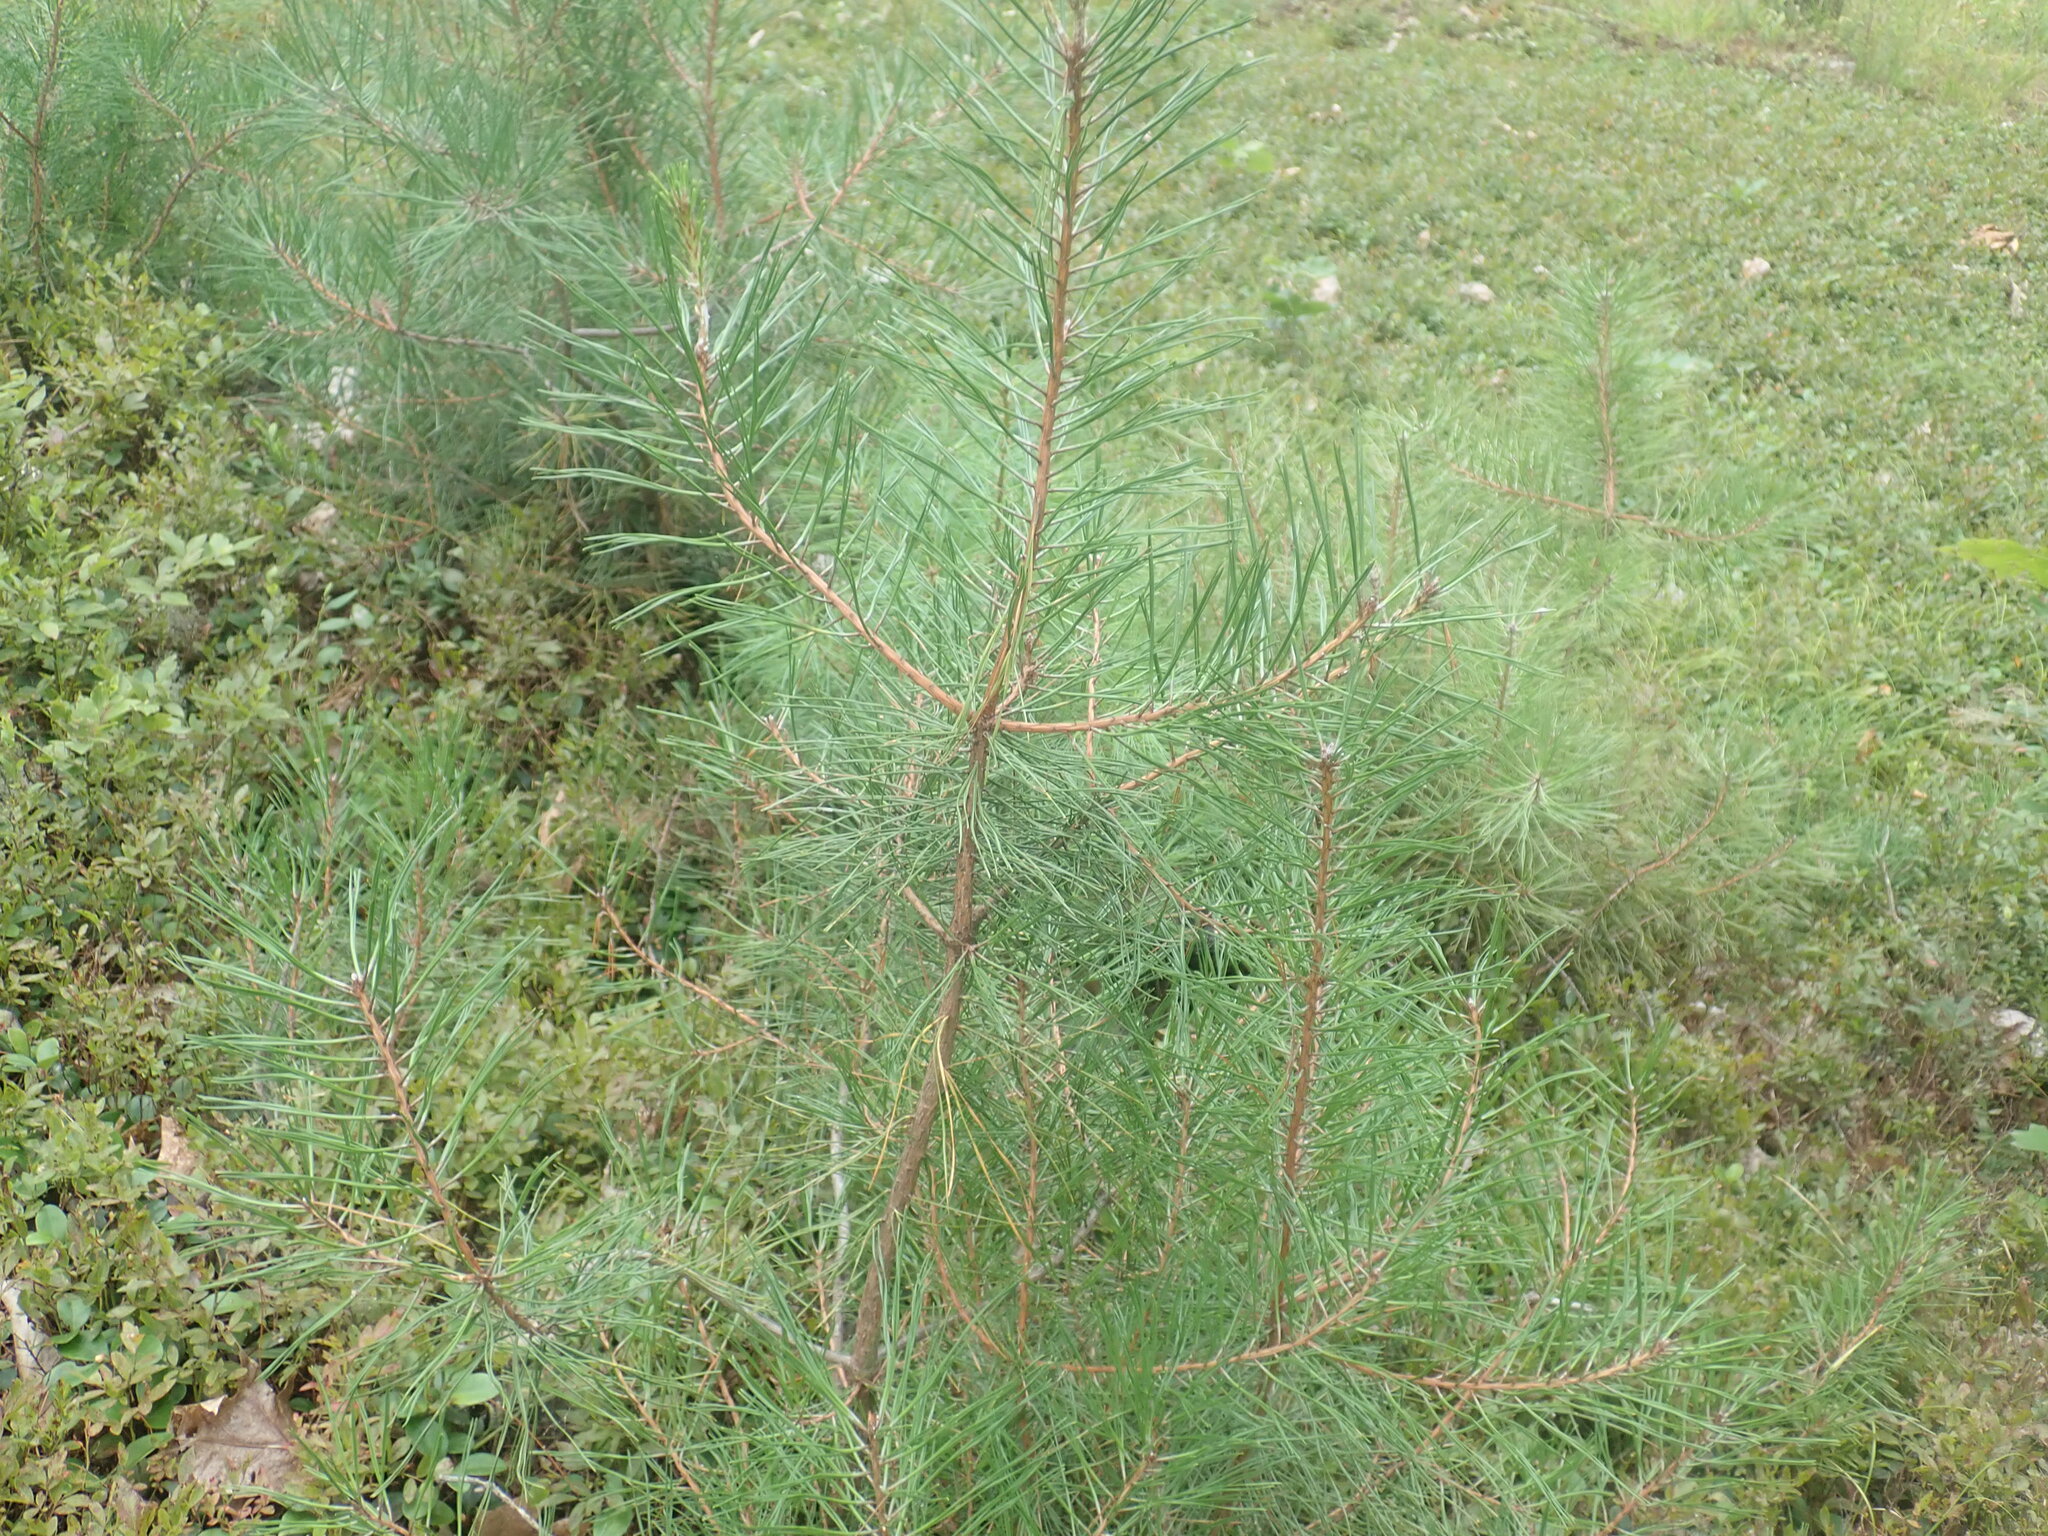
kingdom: Plantae
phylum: Tracheophyta
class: Pinopsida
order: Pinales
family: Pinaceae
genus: Pinus
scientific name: Pinus rigida
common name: Pitch pine
